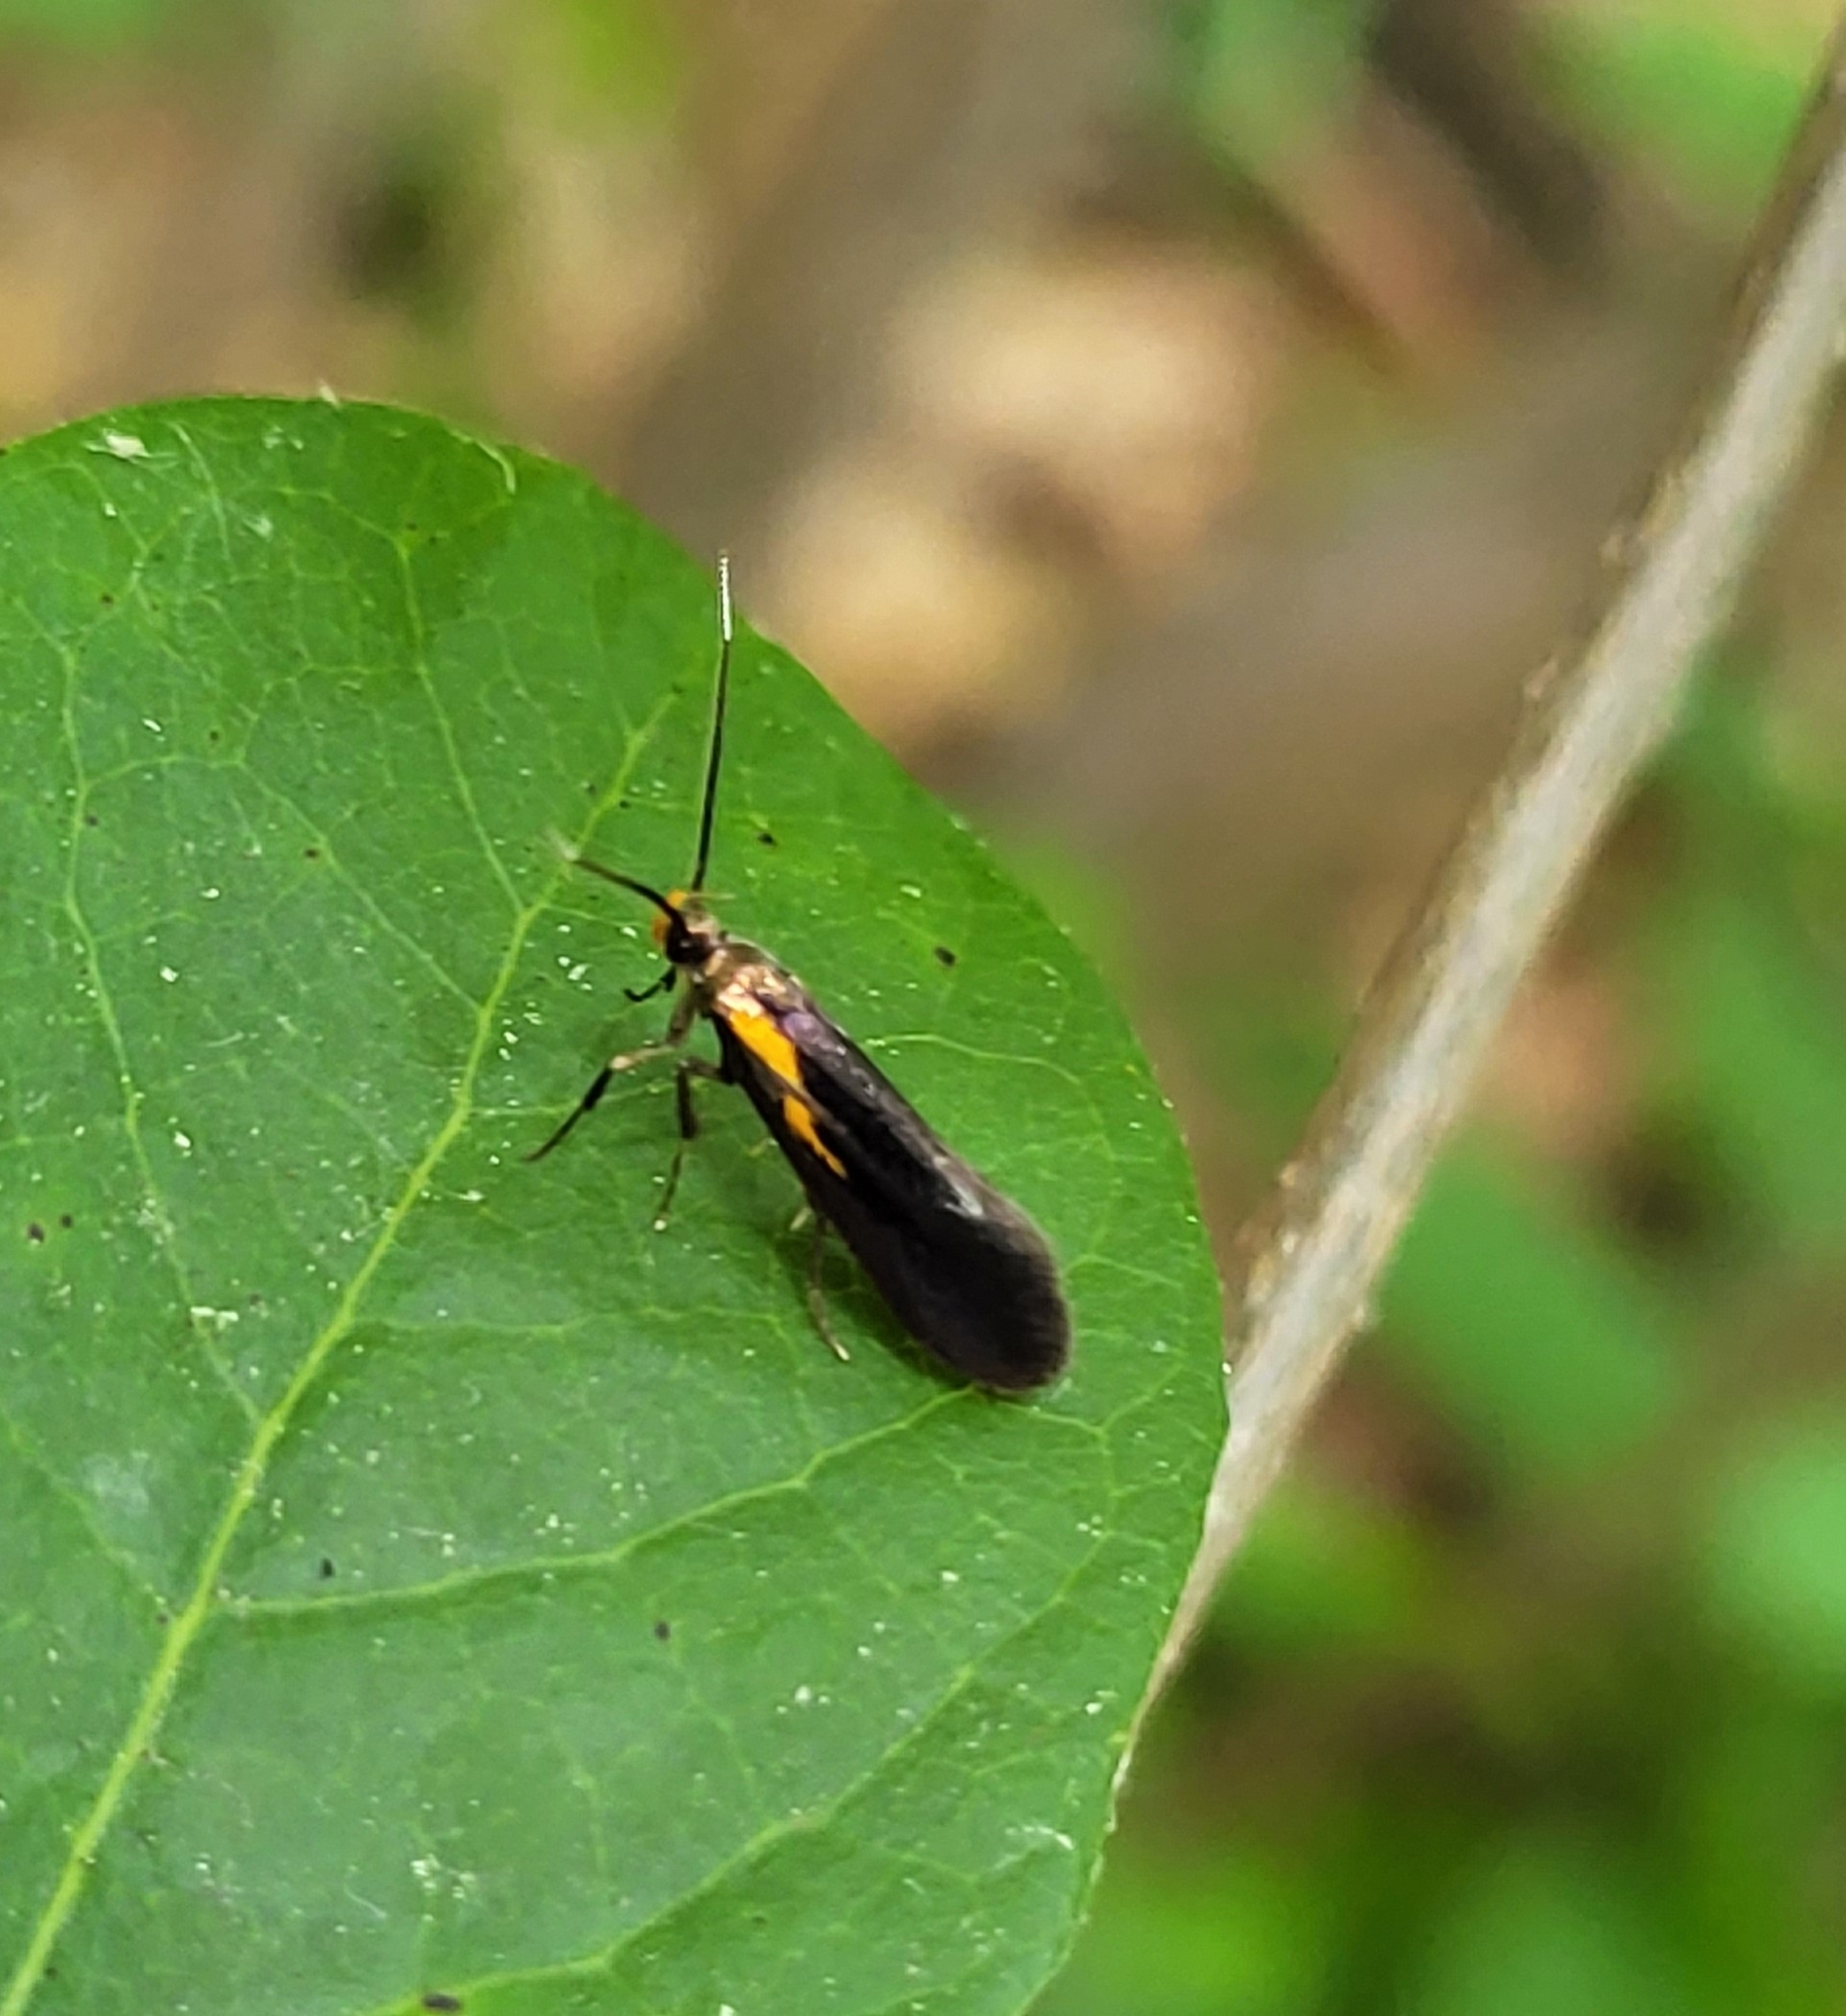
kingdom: Animalia
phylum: Arthropoda
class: Insecta
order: Lepidoptera
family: Oecophoridae
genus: Mathildana
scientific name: Mathildana newmanella
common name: Newman's mathildana moth
